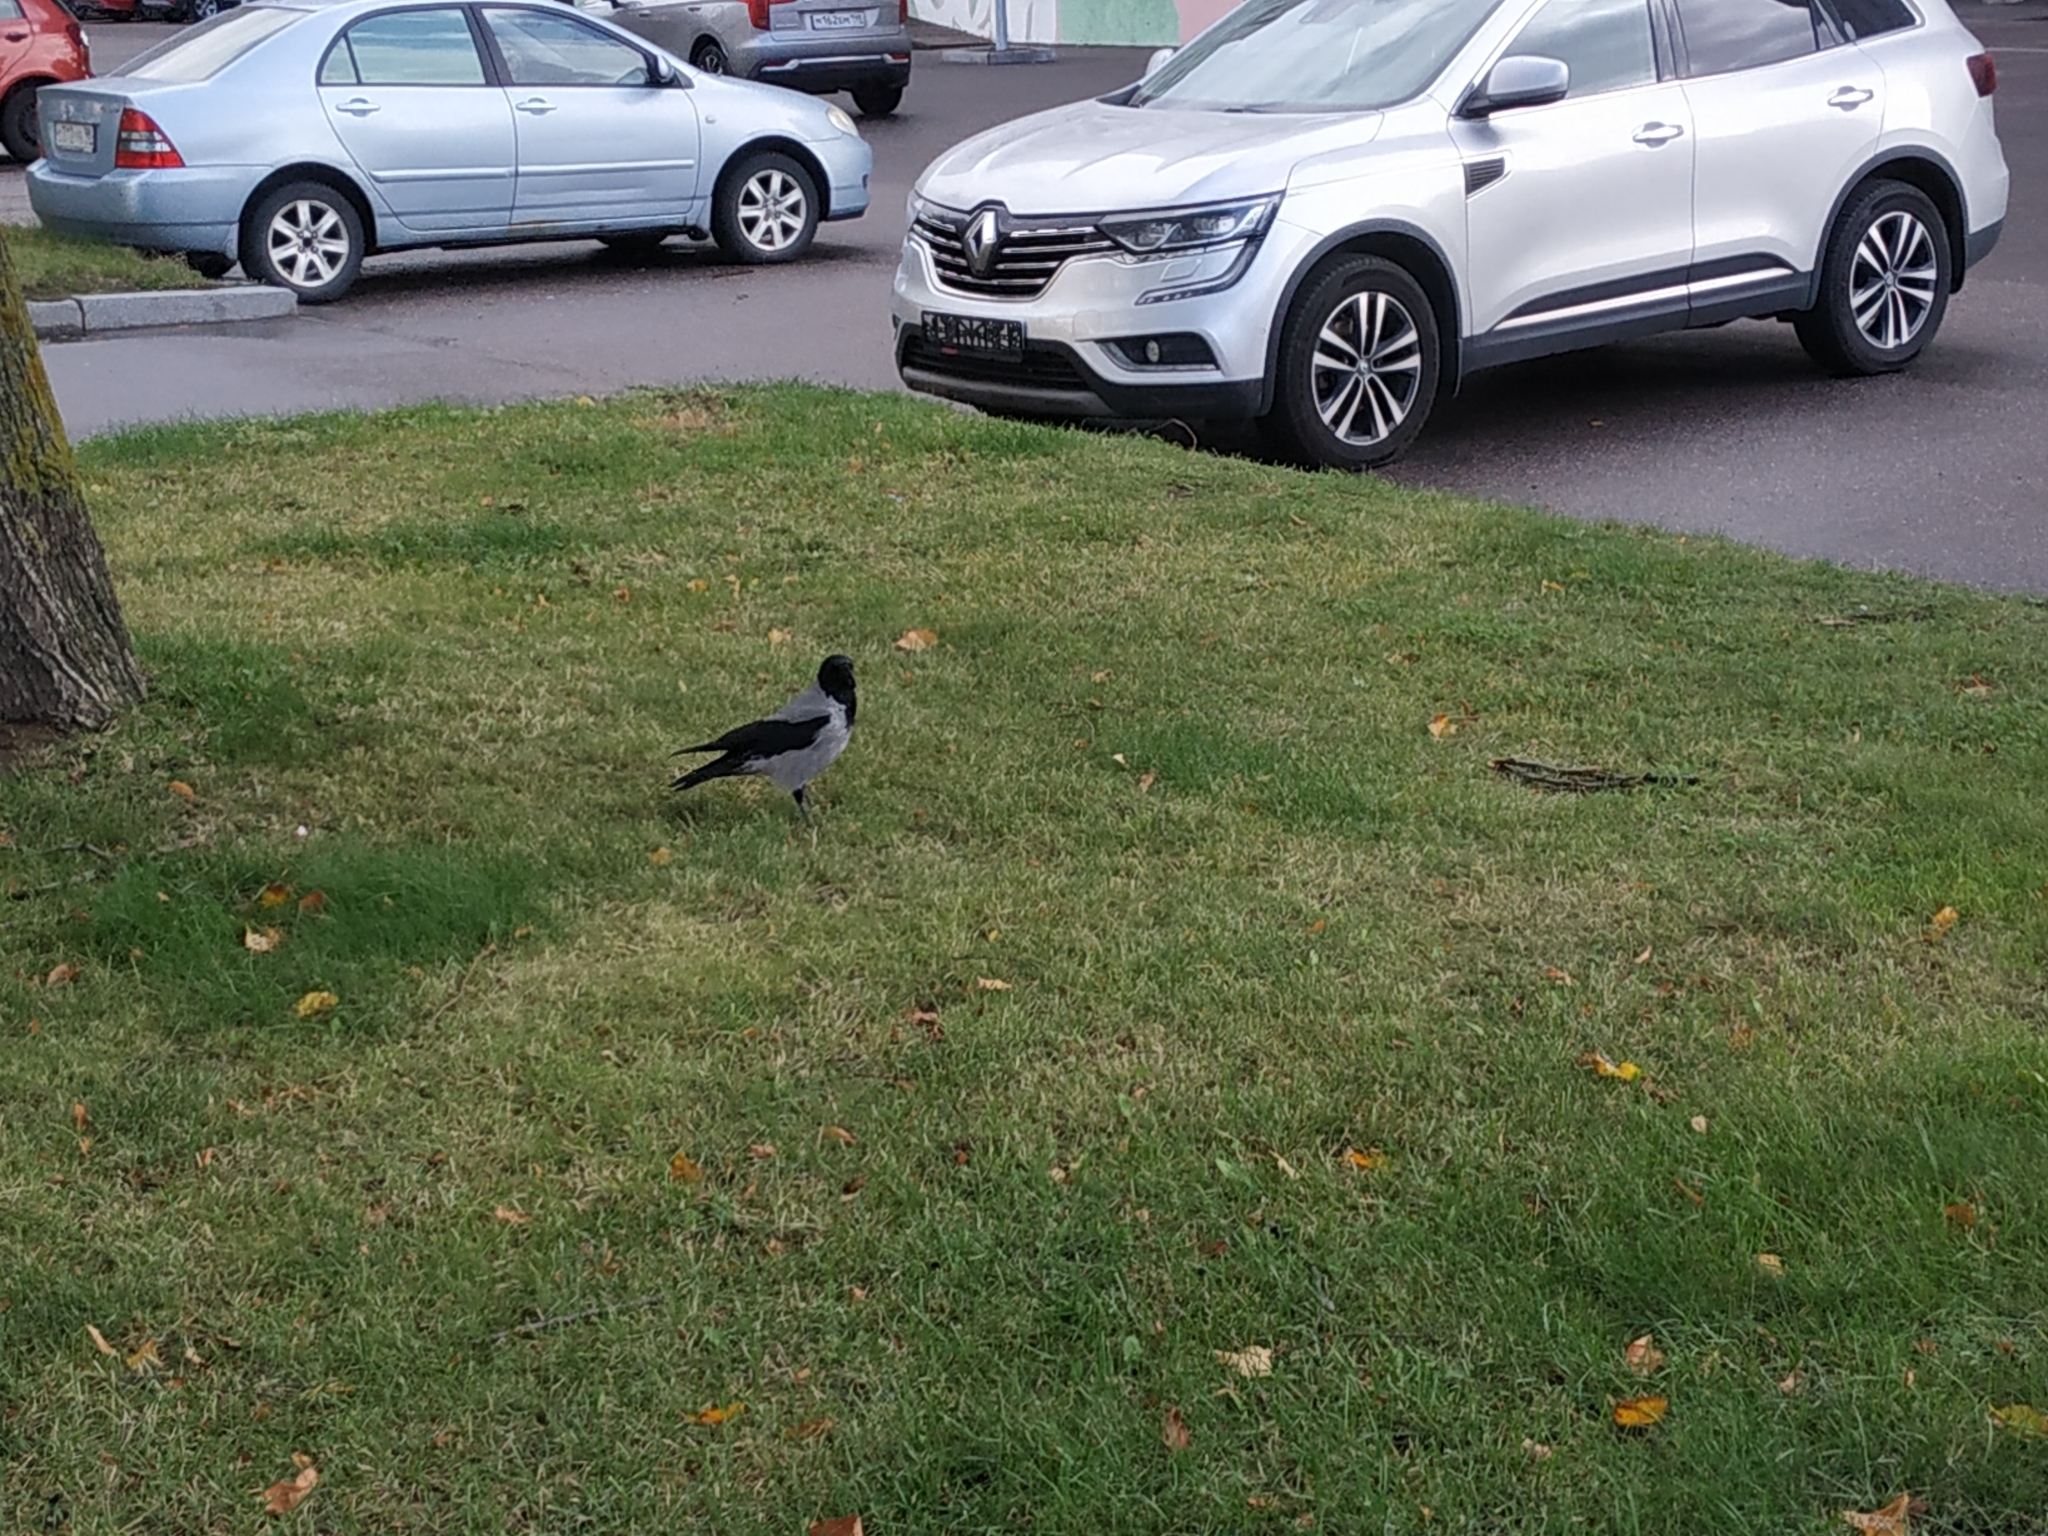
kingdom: Animalia
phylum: Chordata
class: Aves
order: Passeriformes
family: Corvidae
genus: Corvus
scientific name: Corvus cornix
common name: Hooded crow
